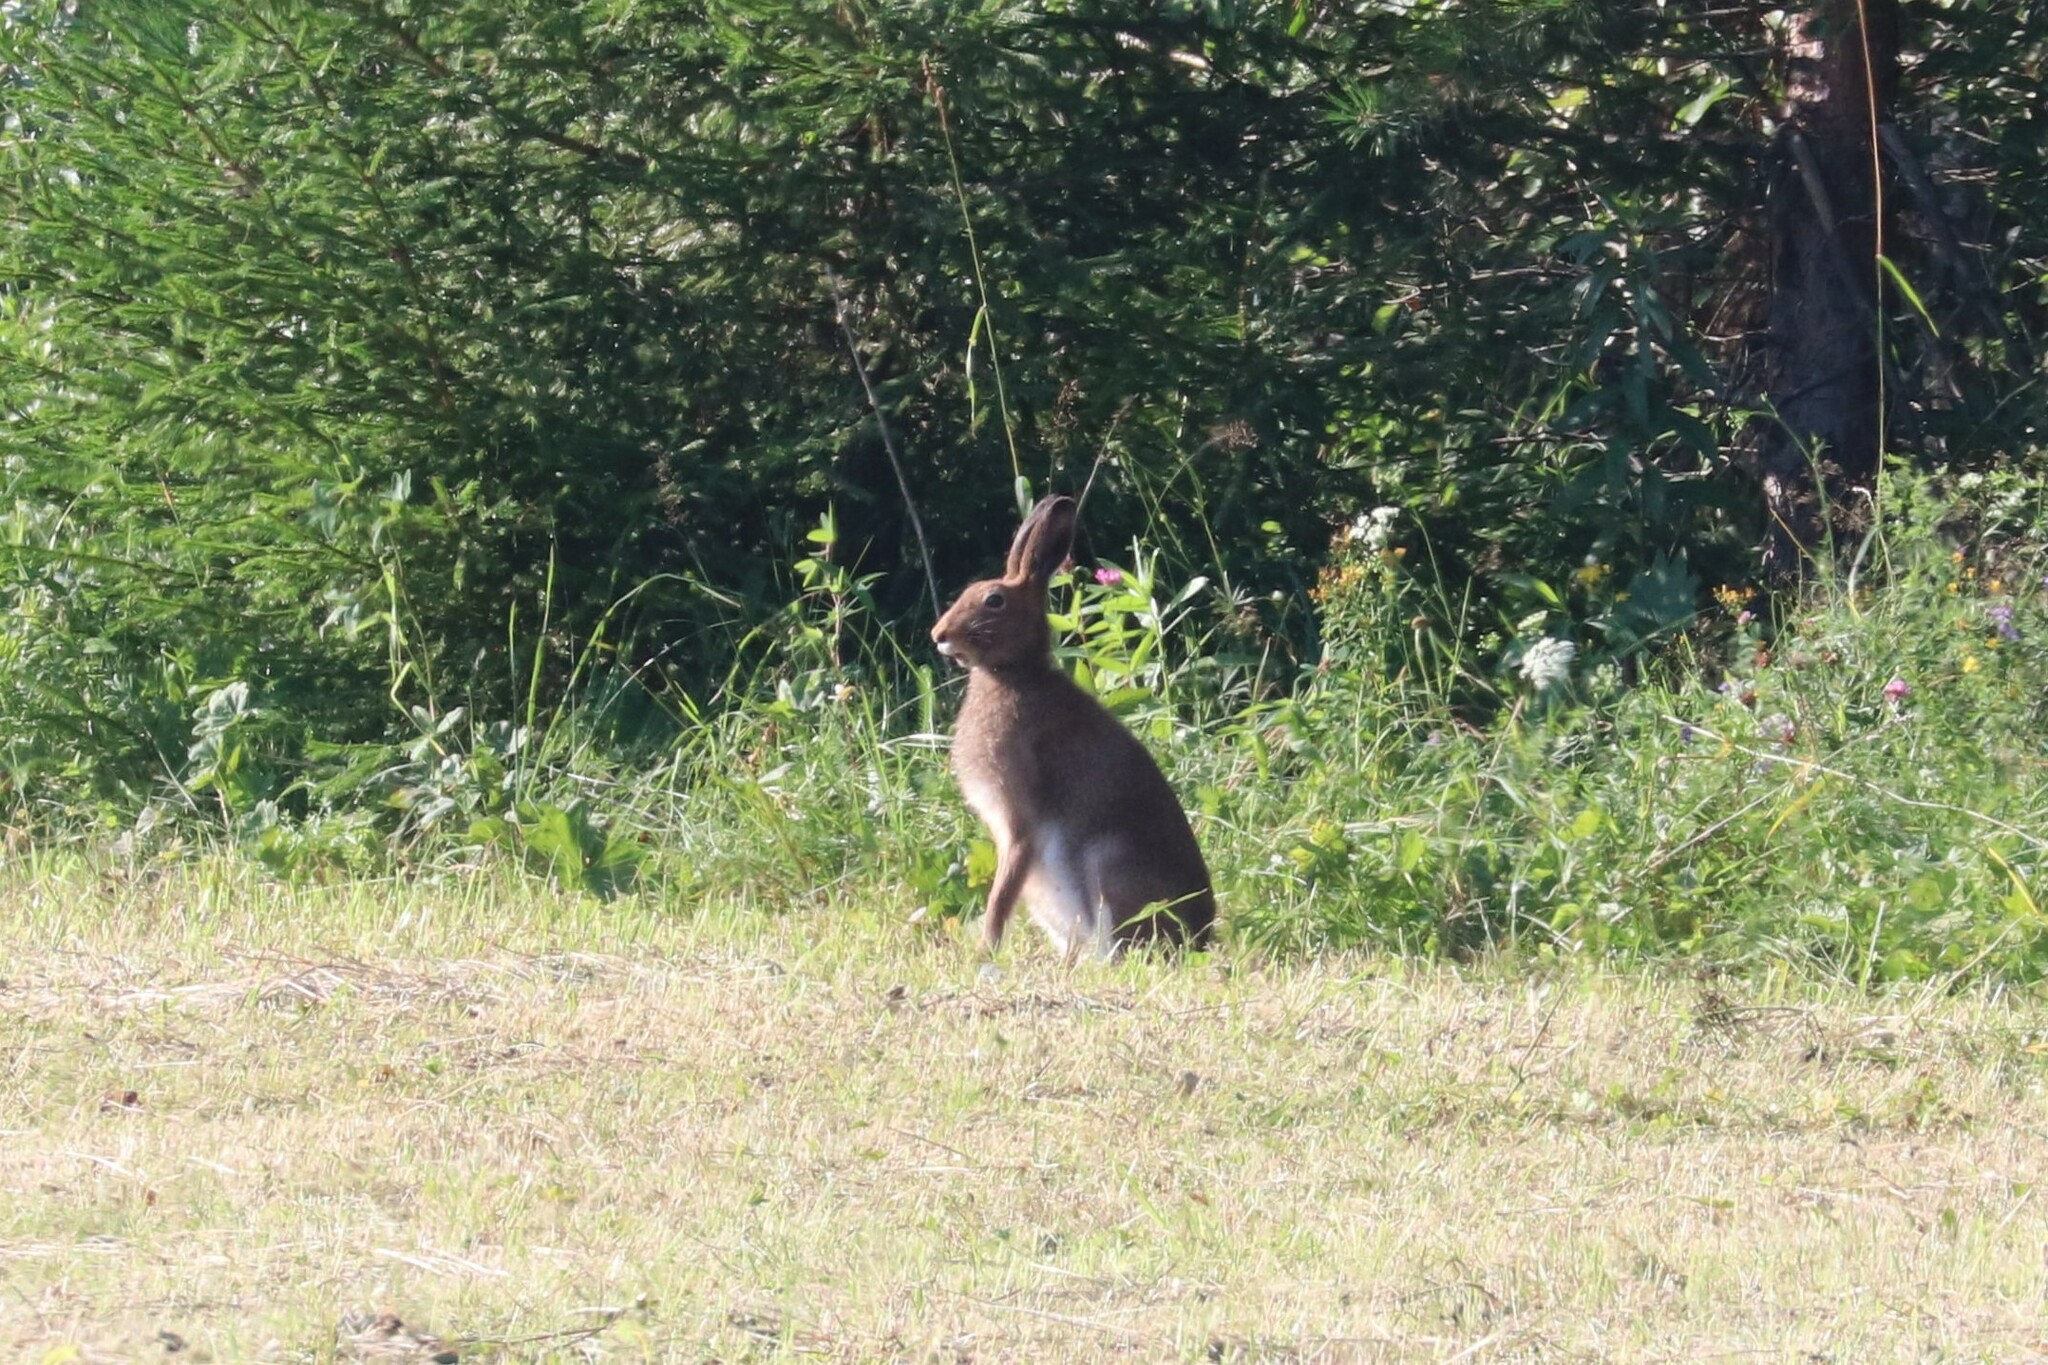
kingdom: Animalia
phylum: Chordata
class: Mammalia
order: Lagomorpha
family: Leporidae
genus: Lepus
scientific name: Lepus timidus
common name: Mountain hare
